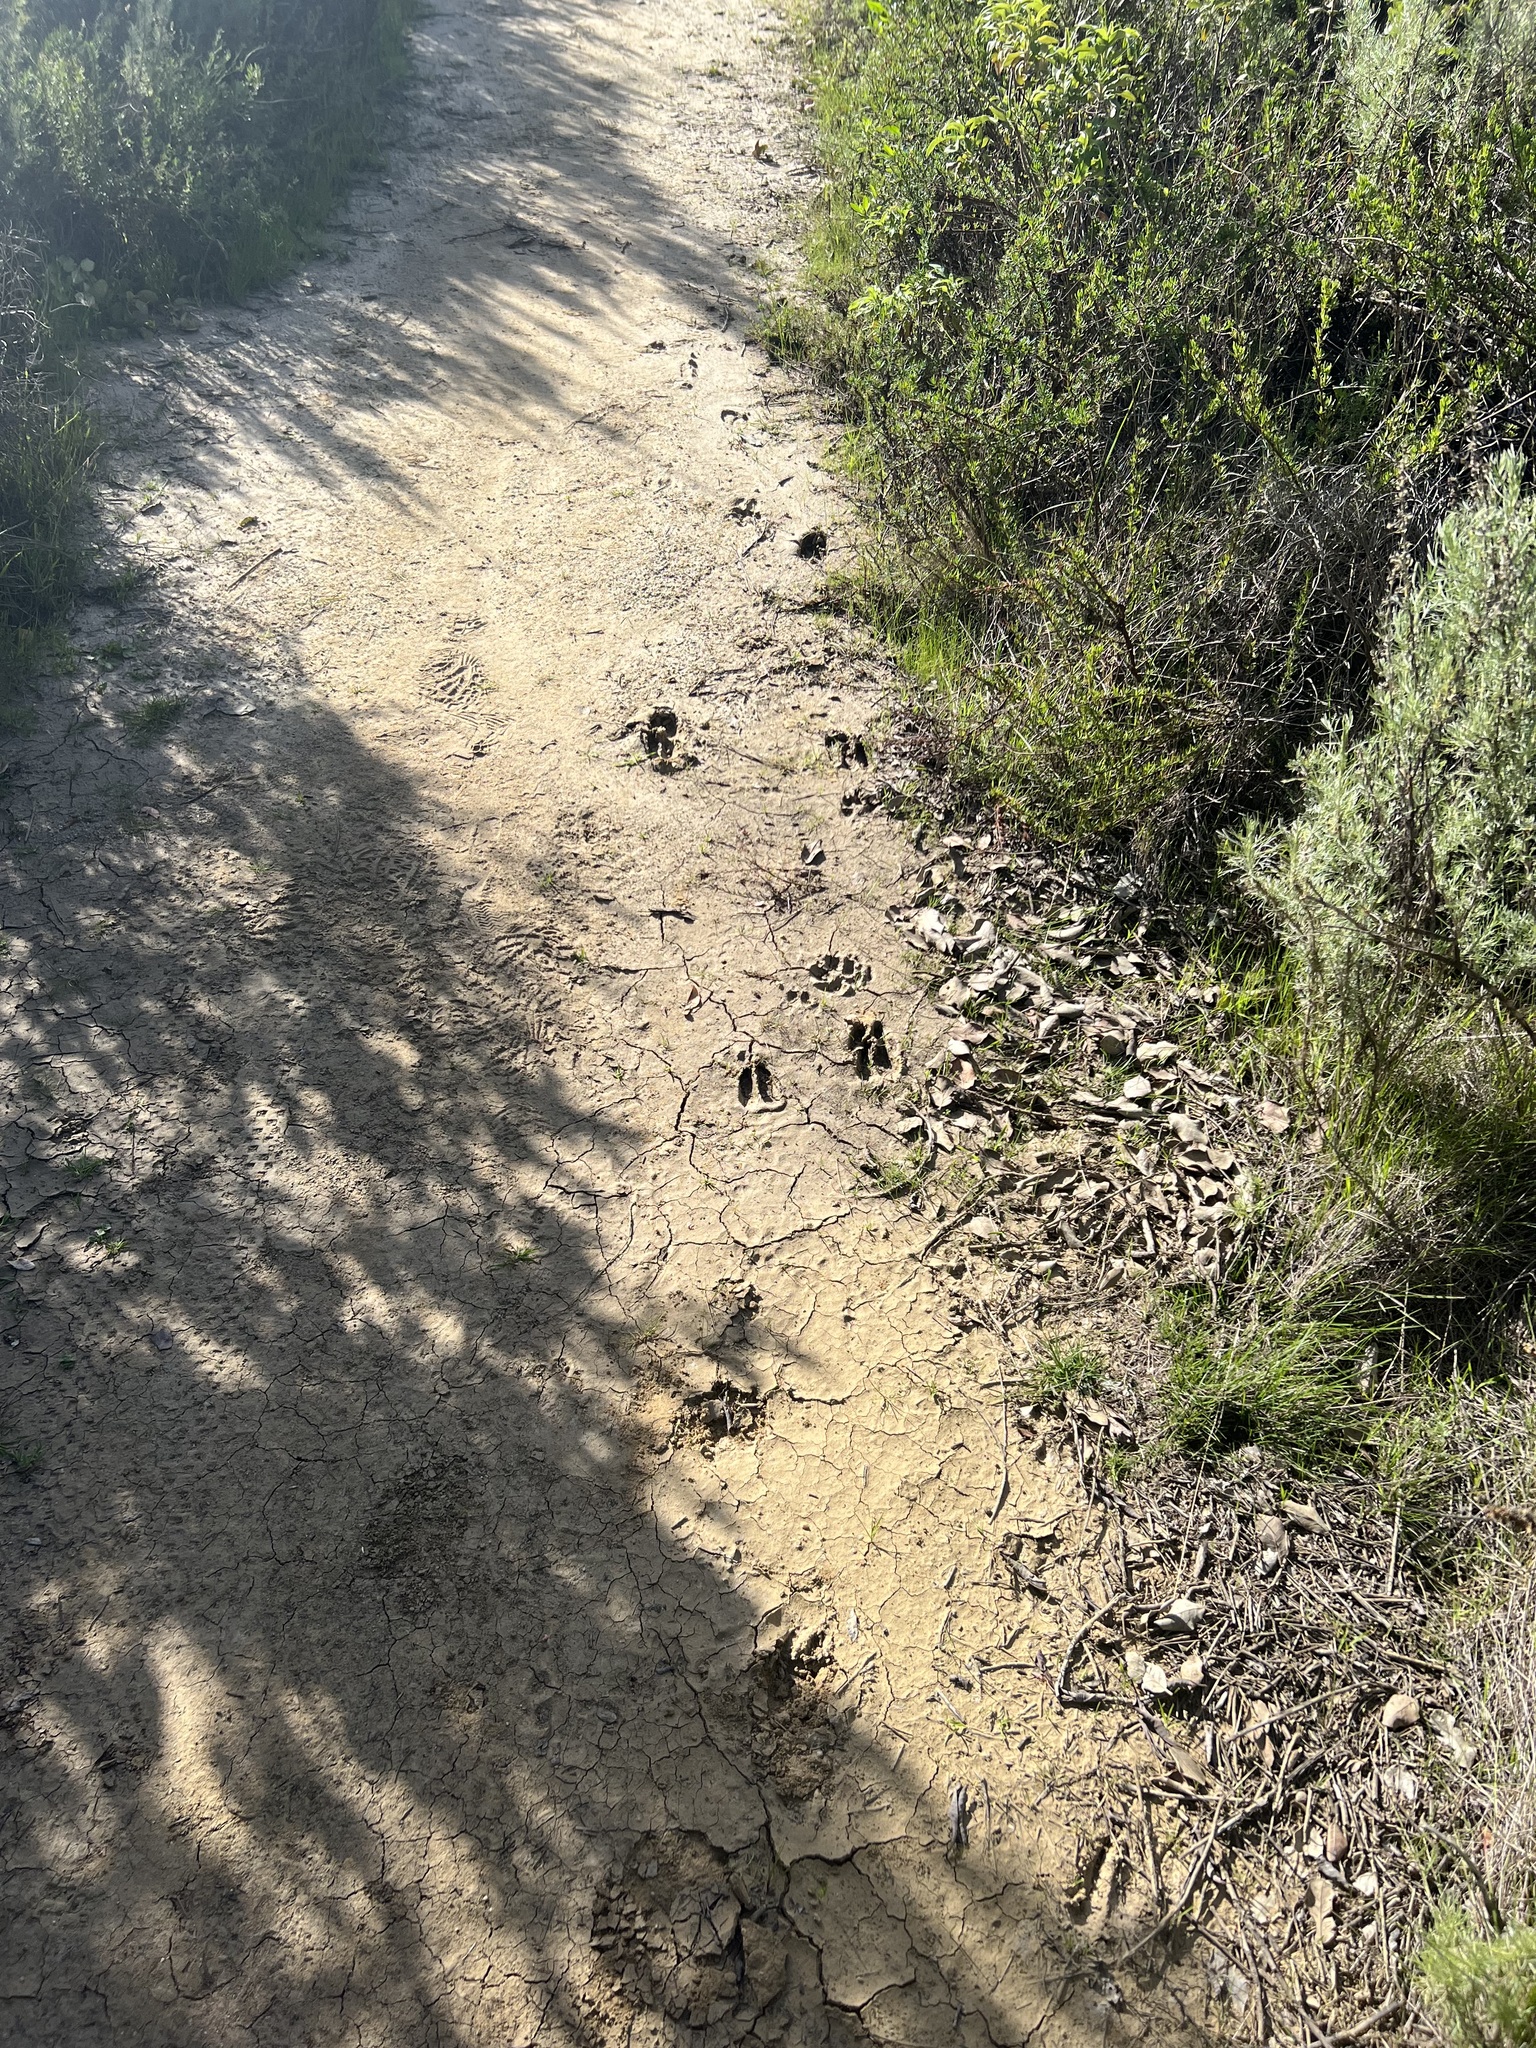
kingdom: Animalia
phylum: Chordata
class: Mammalia
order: Artiodactyla
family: Cervidae
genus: Odocoileus
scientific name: Odocoileus hemionus
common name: Mule deer
